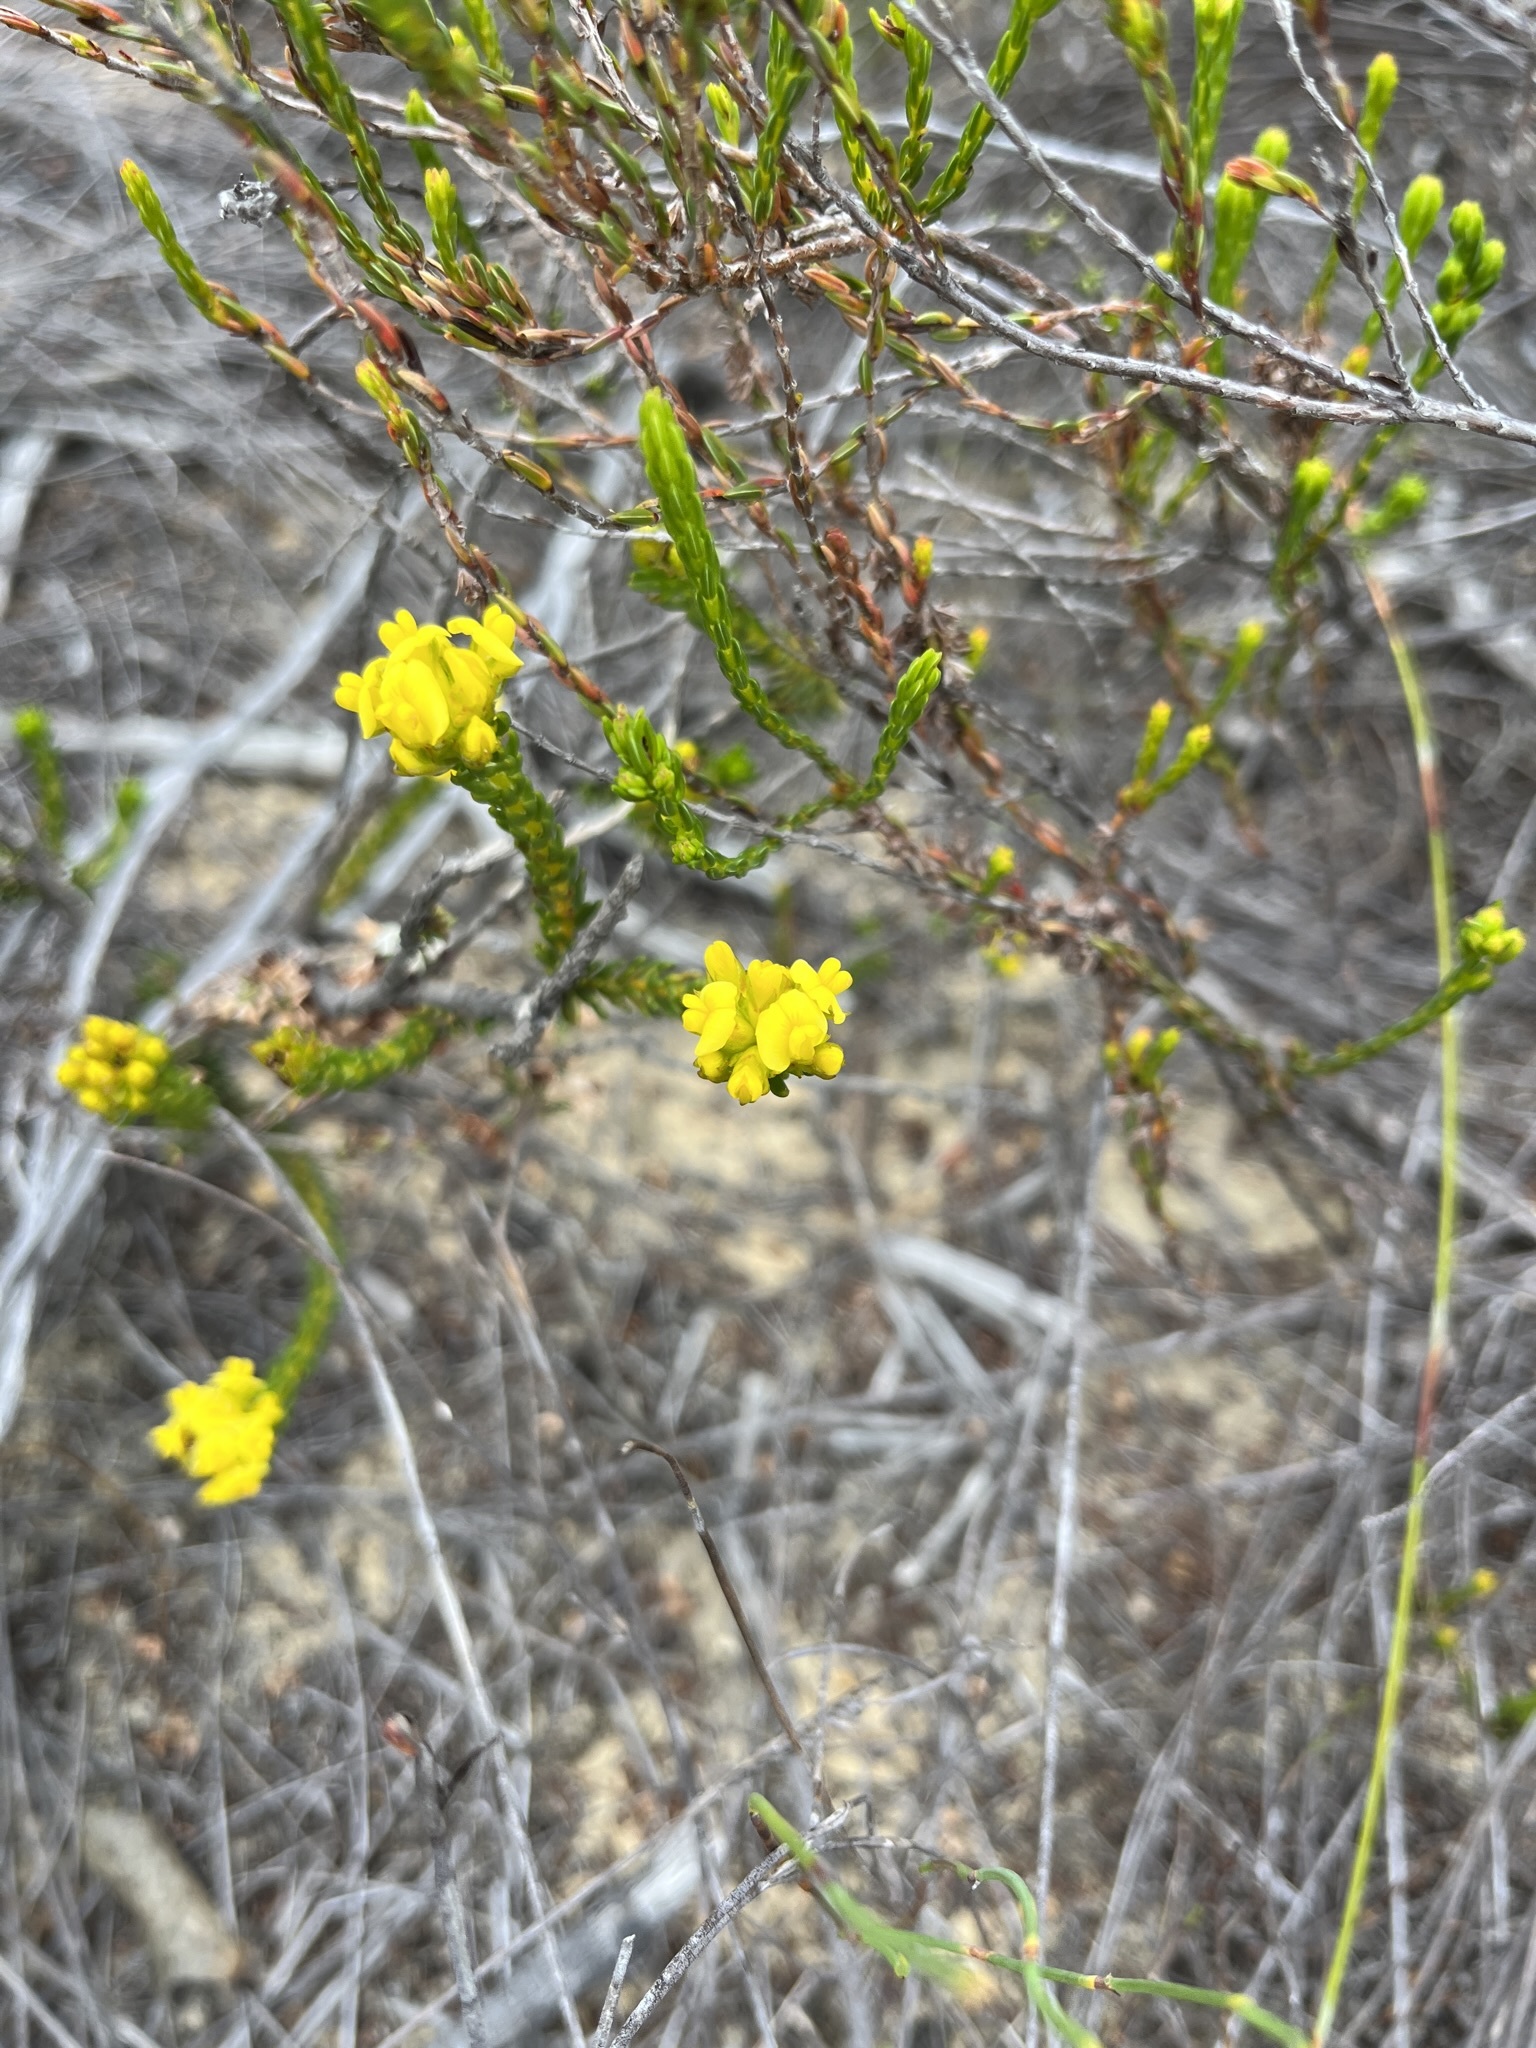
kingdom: Plantae
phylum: Tracheophyta
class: Magnoliopsida
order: Fabales
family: Fabaceae
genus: Aspalathus
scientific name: Aspalathus callosa
